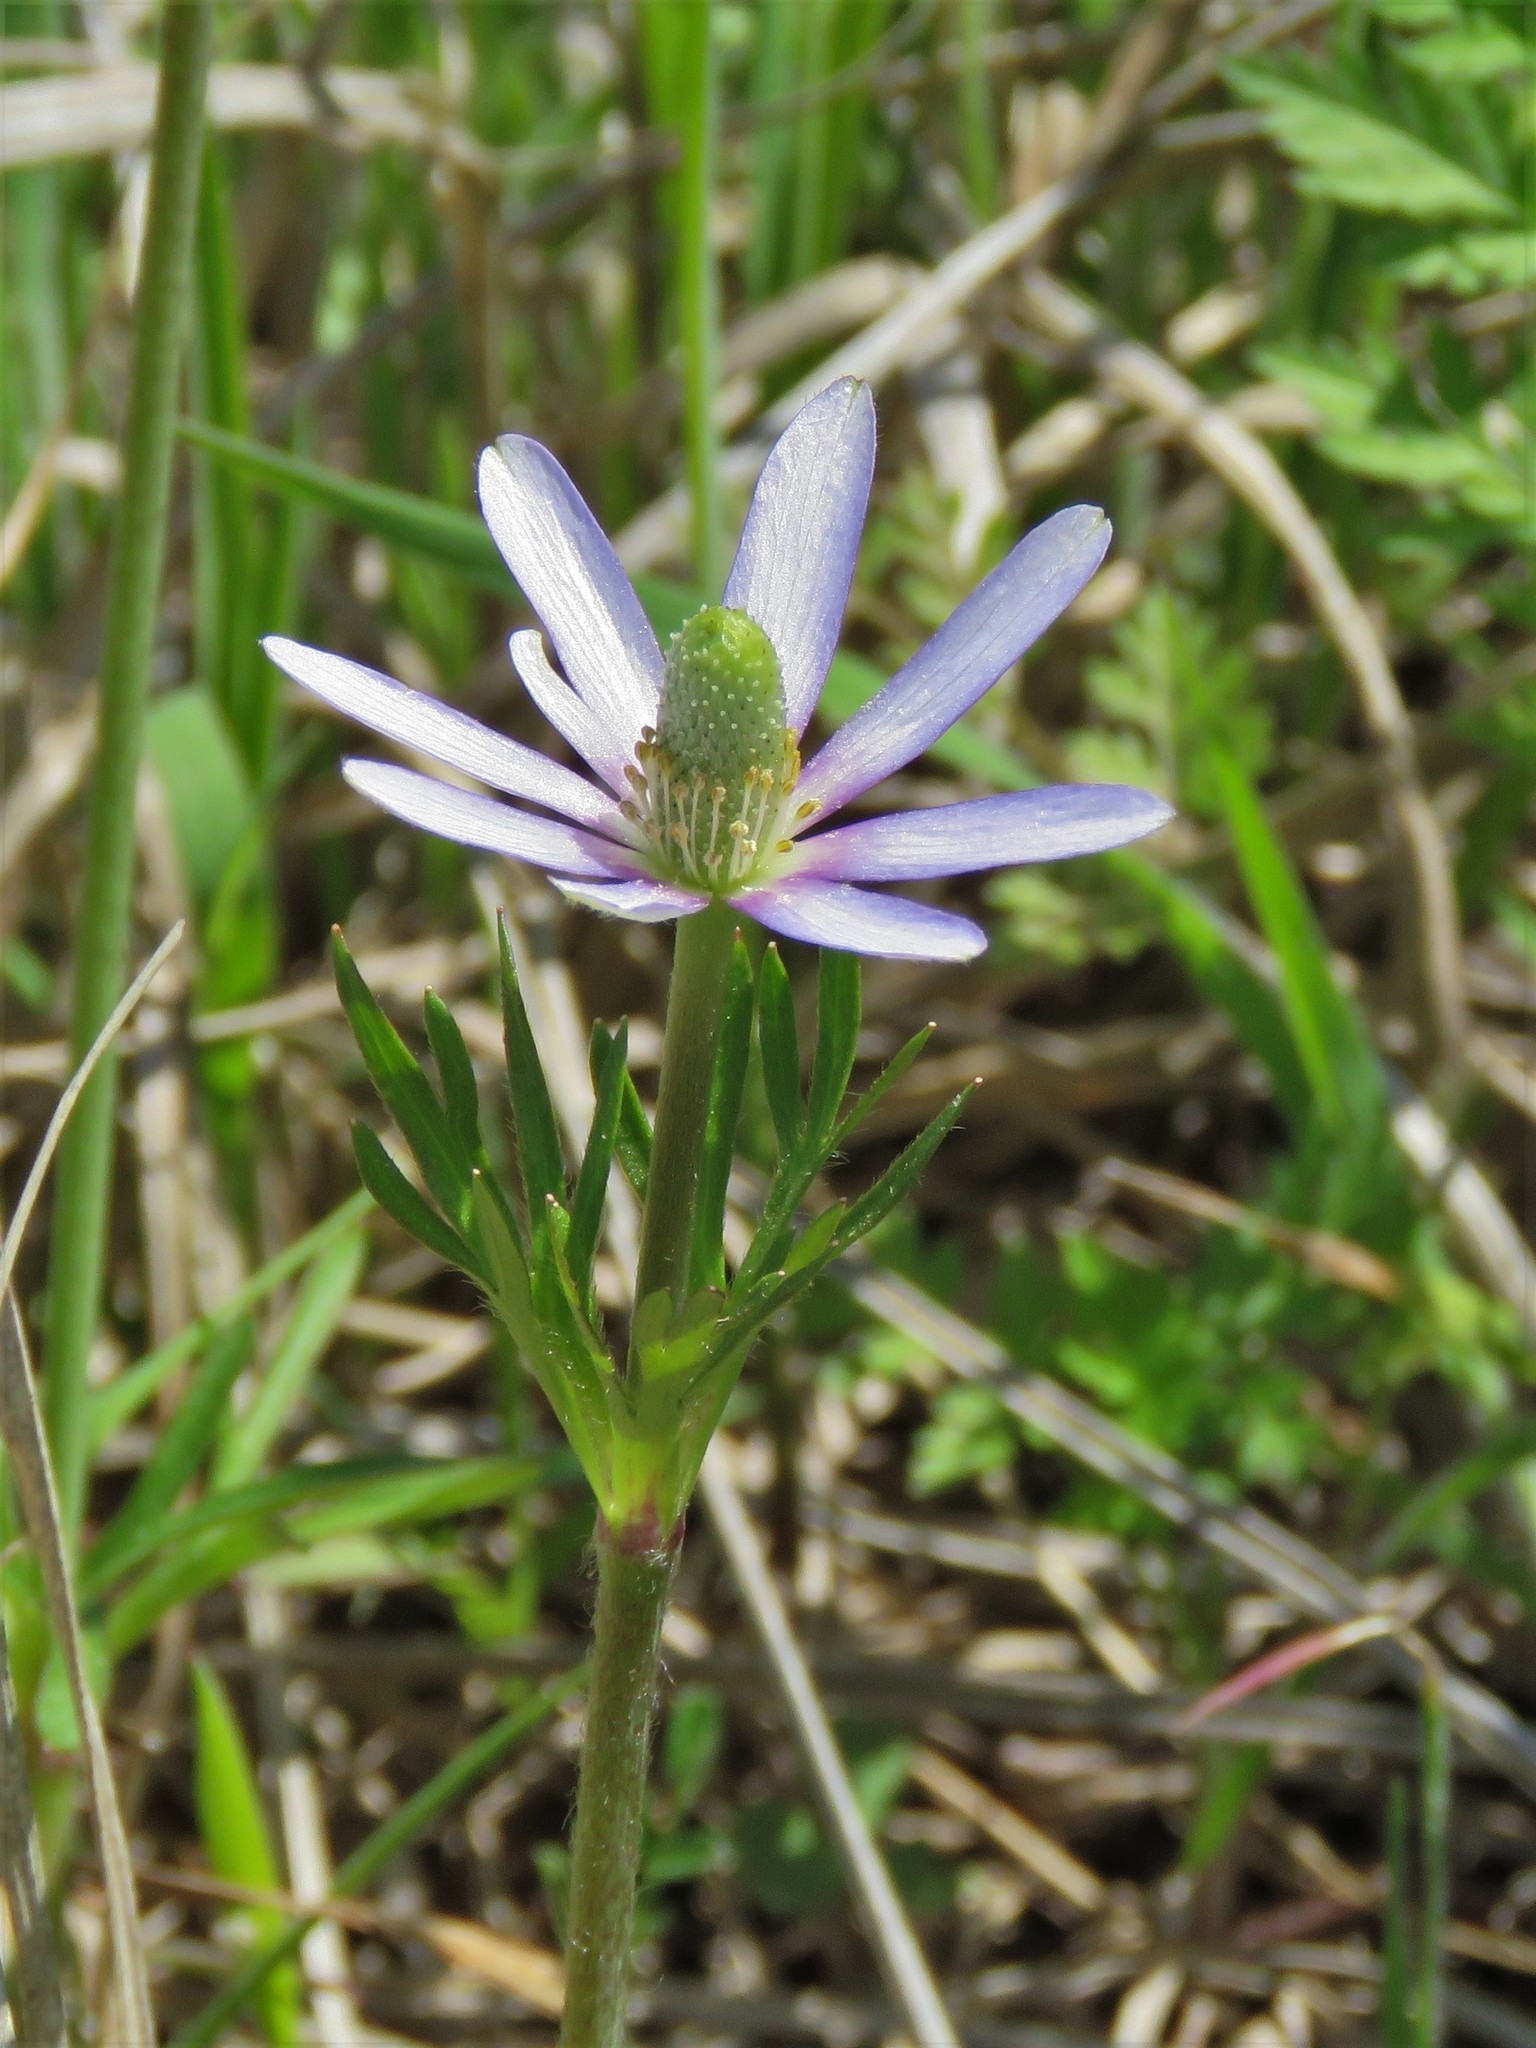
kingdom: Plantae
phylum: Tracheophyta
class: Magnoliopsida
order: Ranunculales
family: Ranunculaceae
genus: Anemone
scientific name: Anemone berlandieri
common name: Ten-petal anemone
